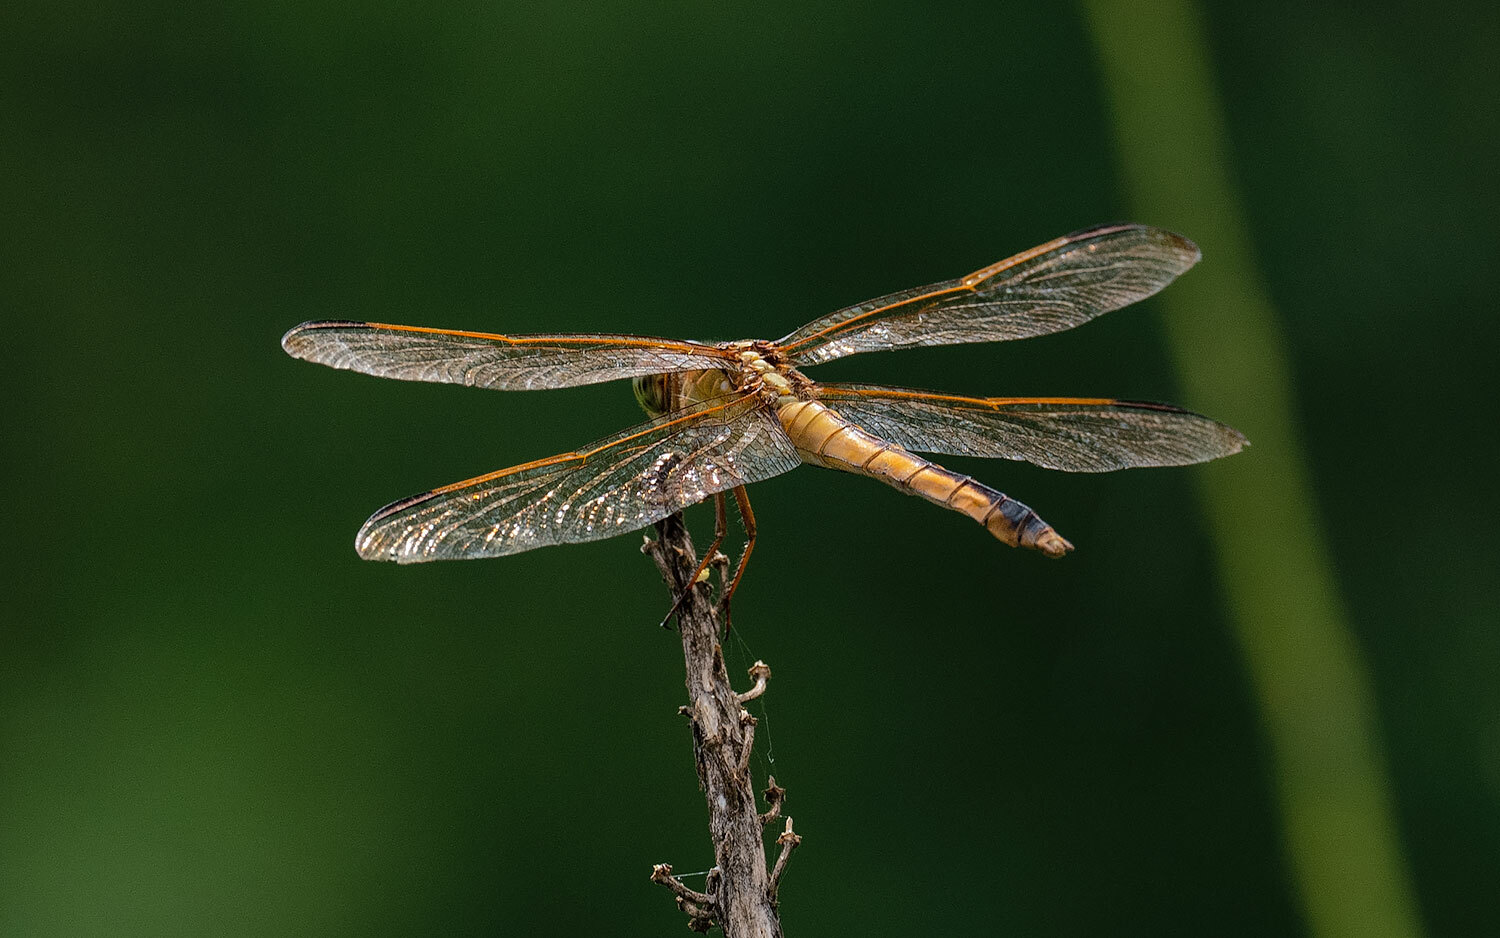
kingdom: Animalia
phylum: Arthropoda
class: Insecta
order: Odonata
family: Libellulidae
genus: Libellula
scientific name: Libellula needhami
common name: Needham's skimmer
